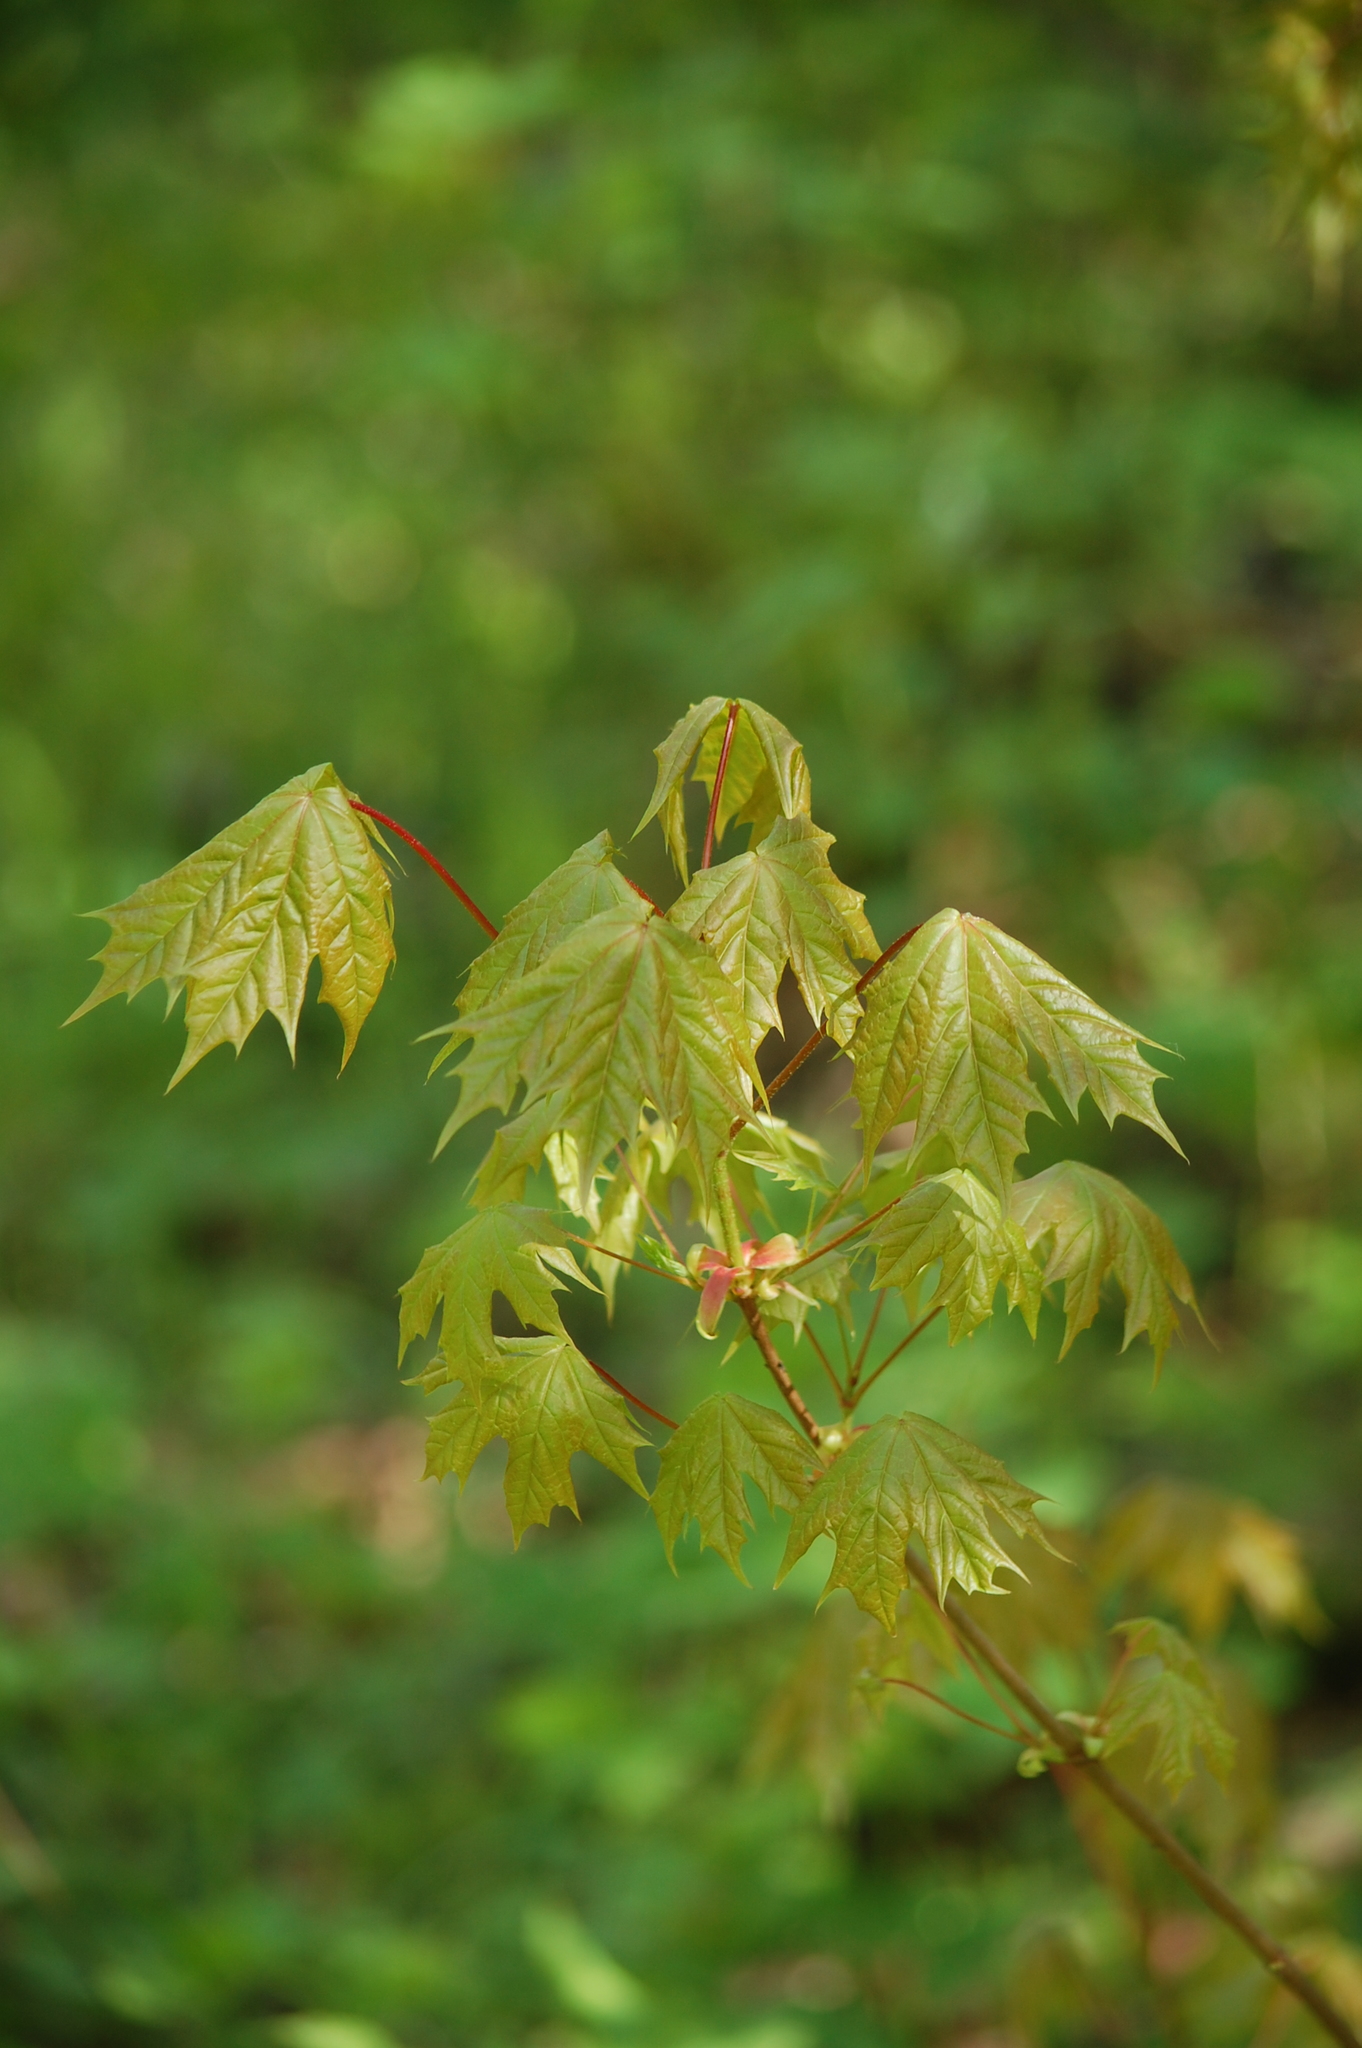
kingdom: Plantae
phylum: Tracheophyta
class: Magnoliopsida
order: Sapindales
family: Sapindaceae
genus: Acer
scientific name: Acer platanoides
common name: Norway maple
